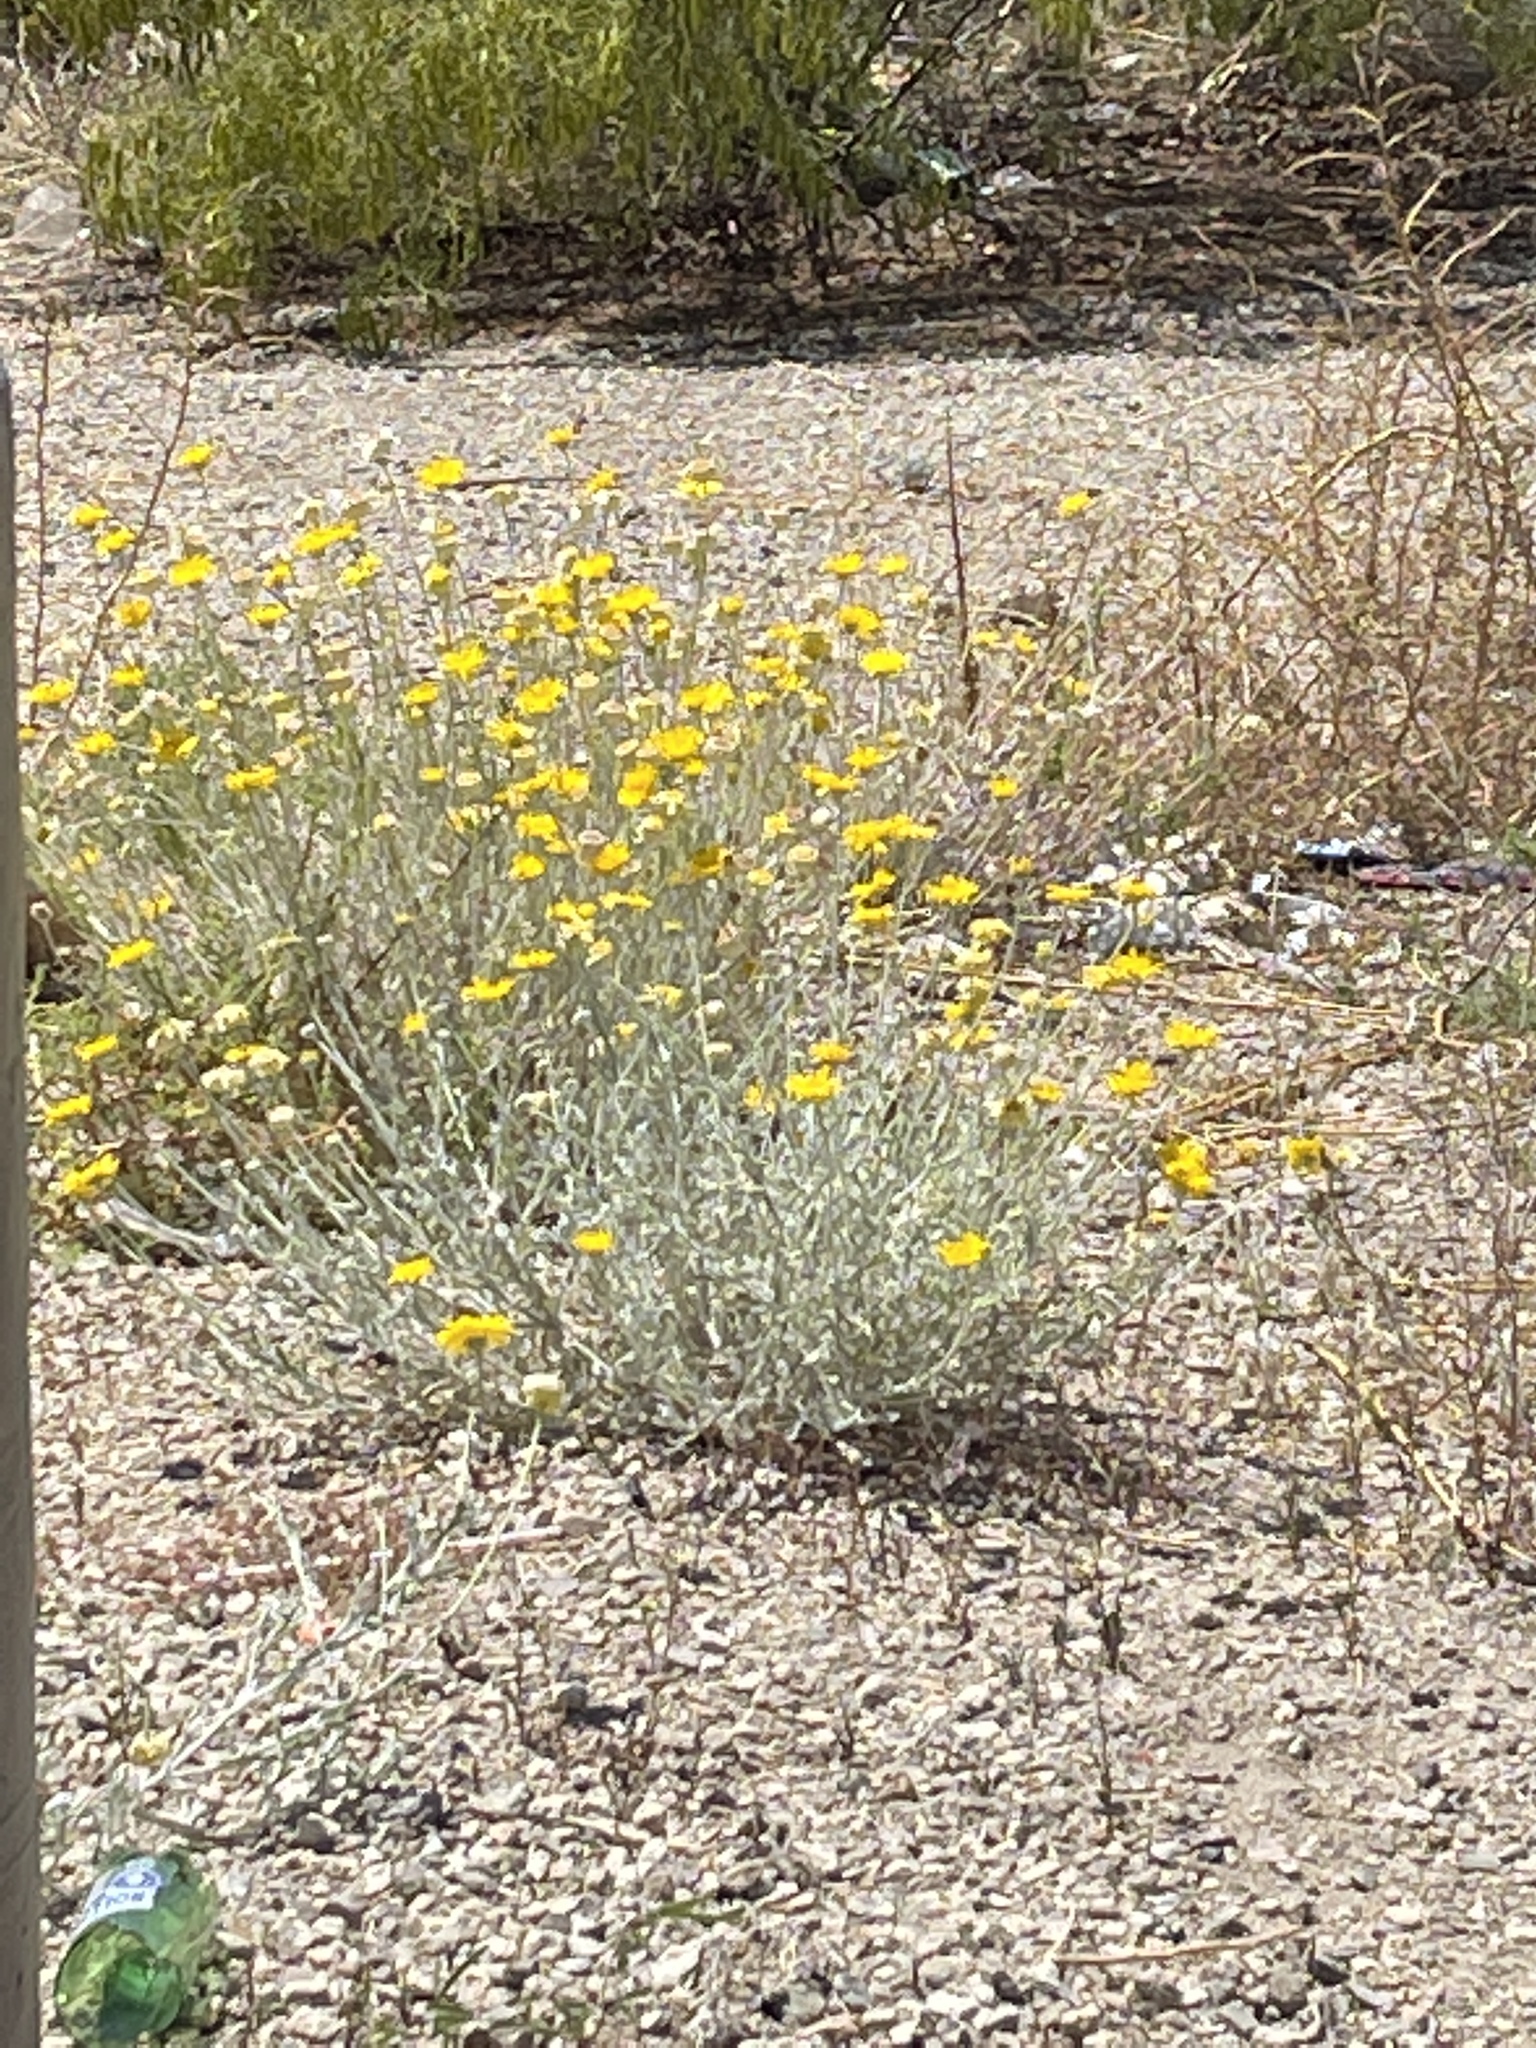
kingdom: Plantae
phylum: Tracheophyta
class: Magnoliopsida
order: Asterales
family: Asteraceae
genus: Baileya
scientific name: Baileya multiradiata
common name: Desert-marigold
